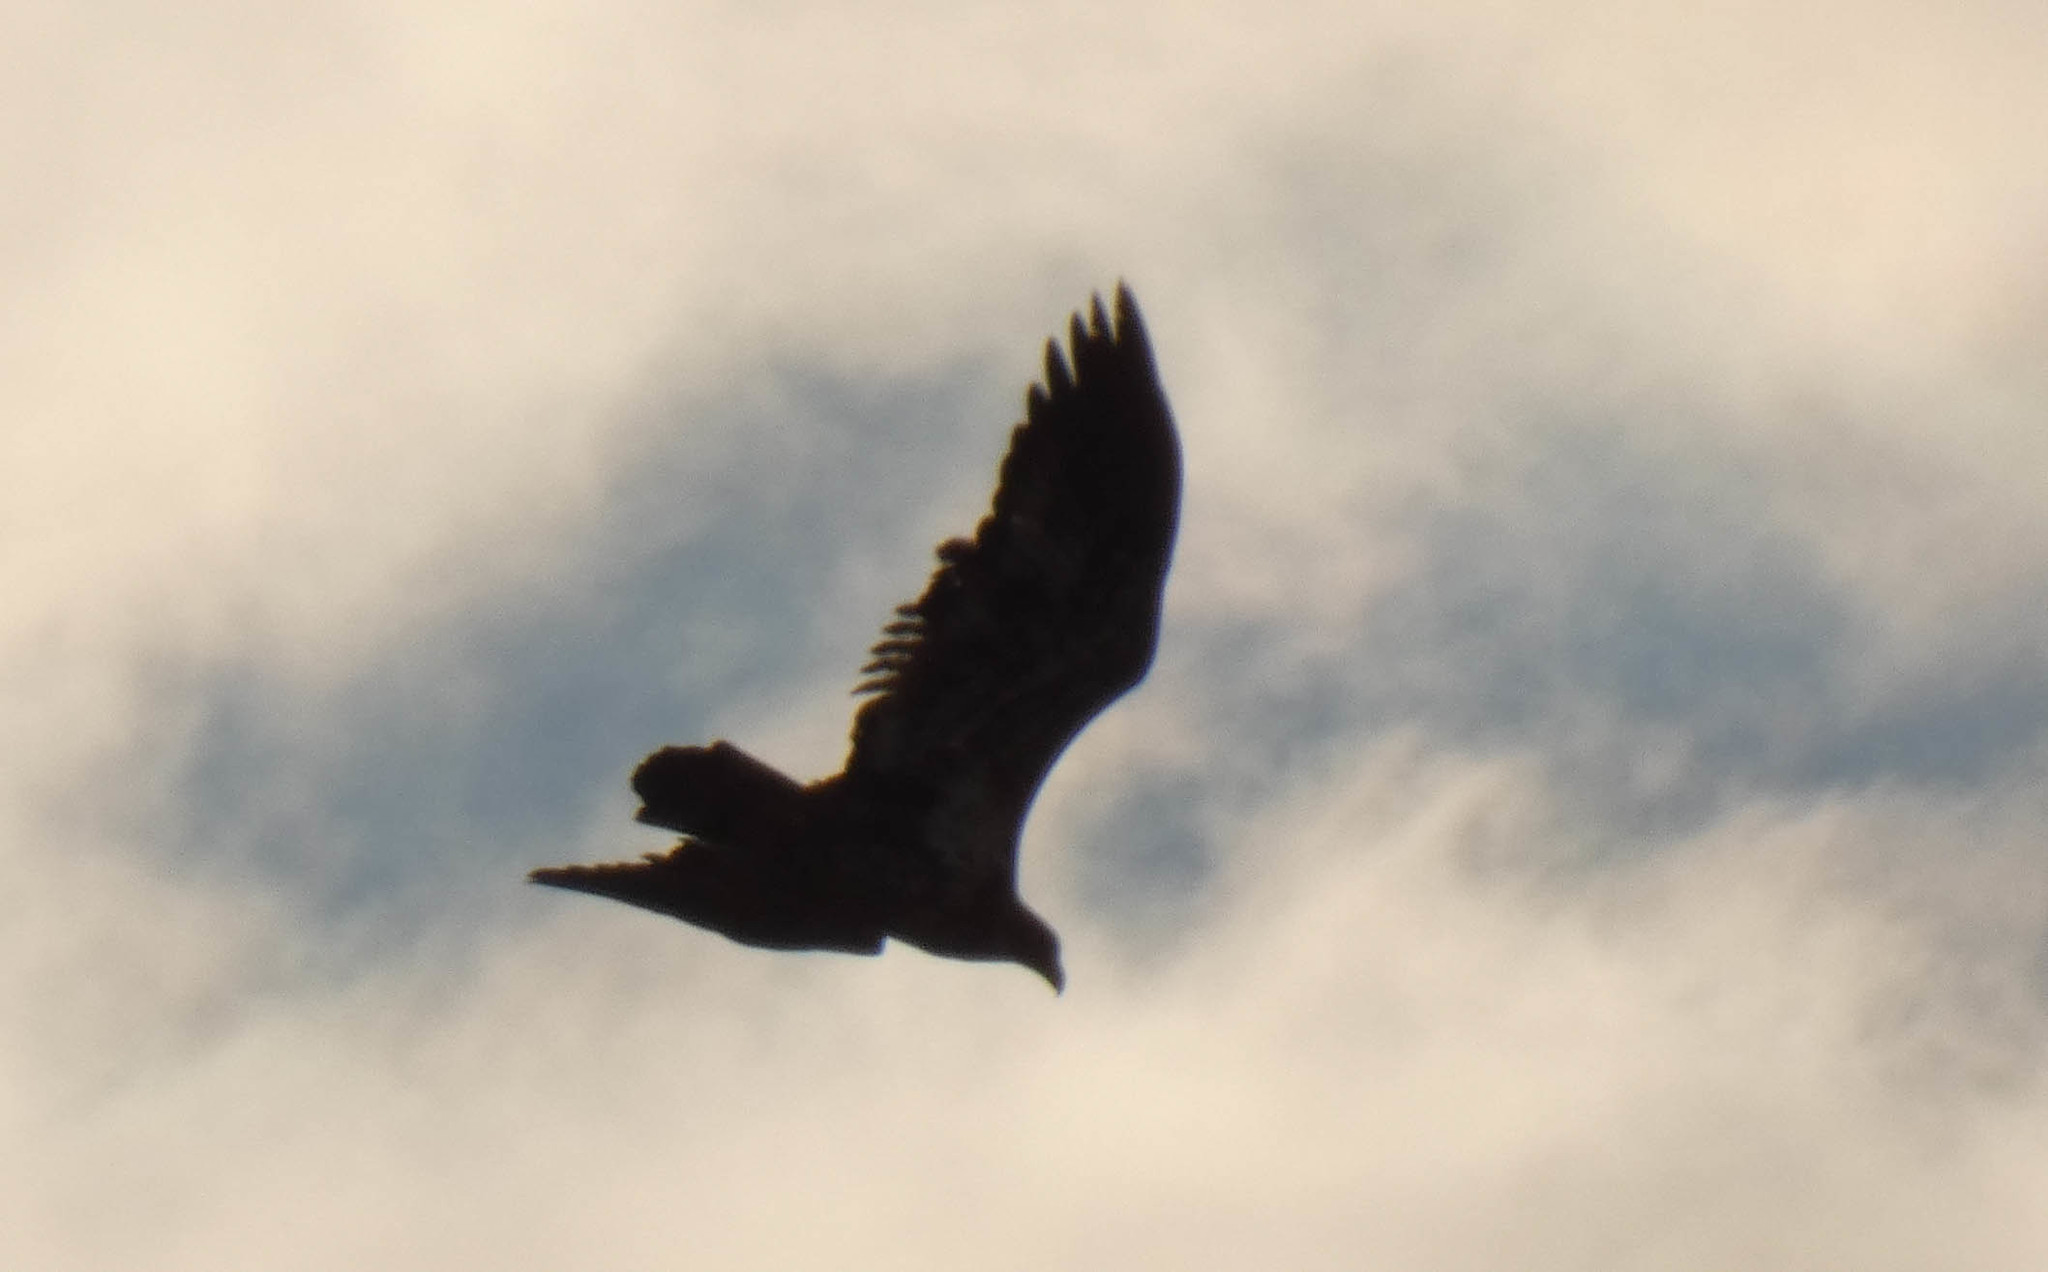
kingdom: Animalia
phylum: Chordata
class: Aves
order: Accipitriformes
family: Accipitridae
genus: Haliaeetus
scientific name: Haliaeetus leucocephalus
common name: Bald eagle
